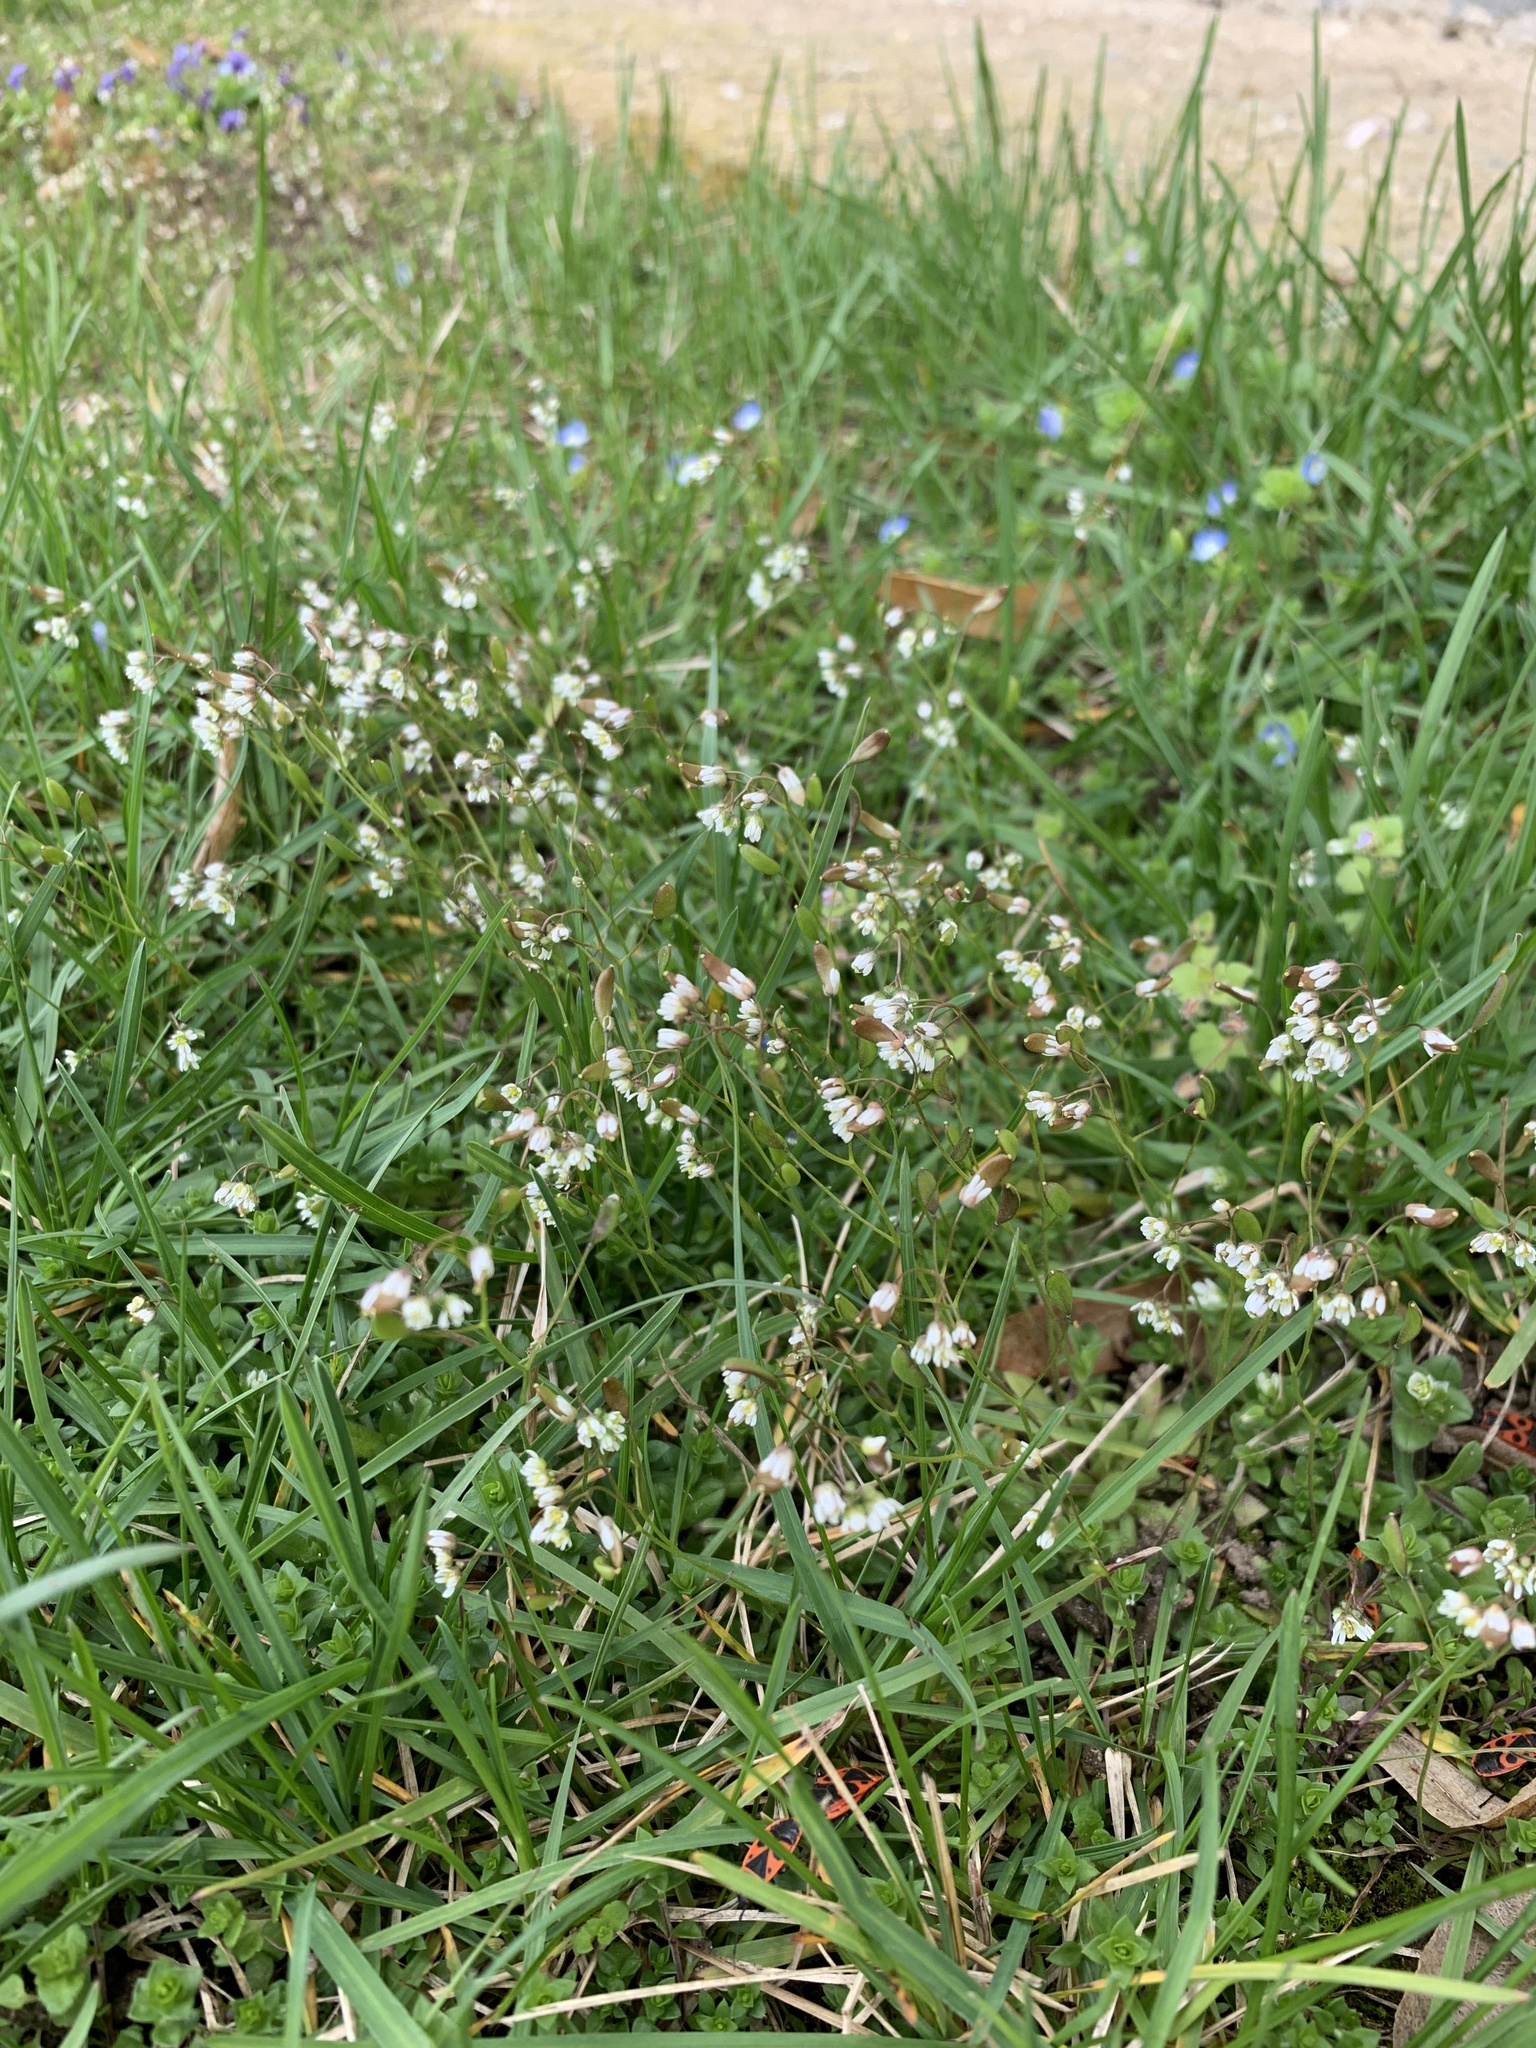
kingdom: Plantae
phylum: Tracheophyta
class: Magnoliopsida
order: Brassicales
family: Brassicaceae
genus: Draba
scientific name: Draba verna
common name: Spring draba
